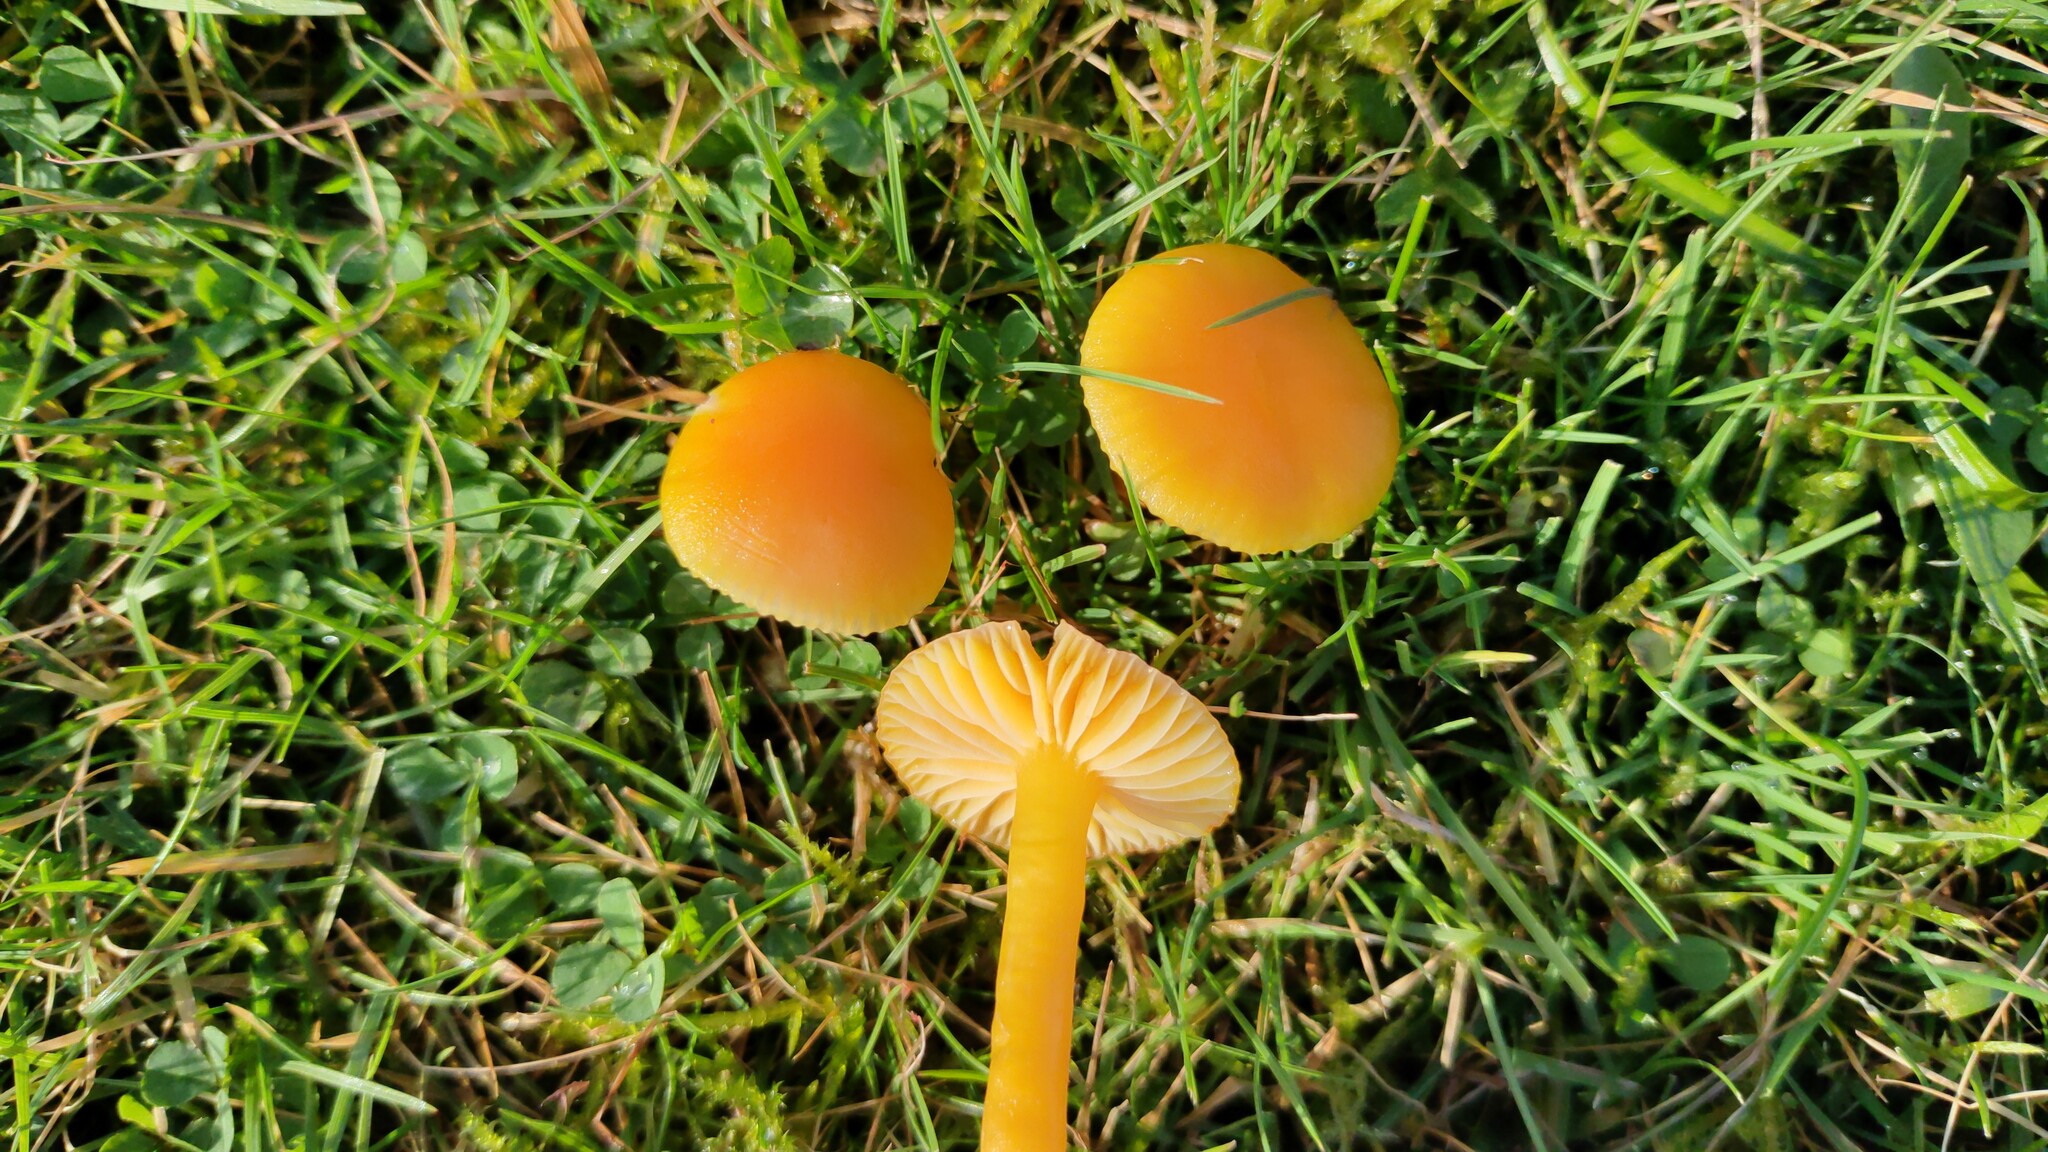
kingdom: Fungi
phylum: Basidiomycota
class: Agaricomycetes
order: Agaricales
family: Hygrophoraceae
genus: Hygrocybe
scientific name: Hygrocybe ceracea
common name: Butter waxcap
